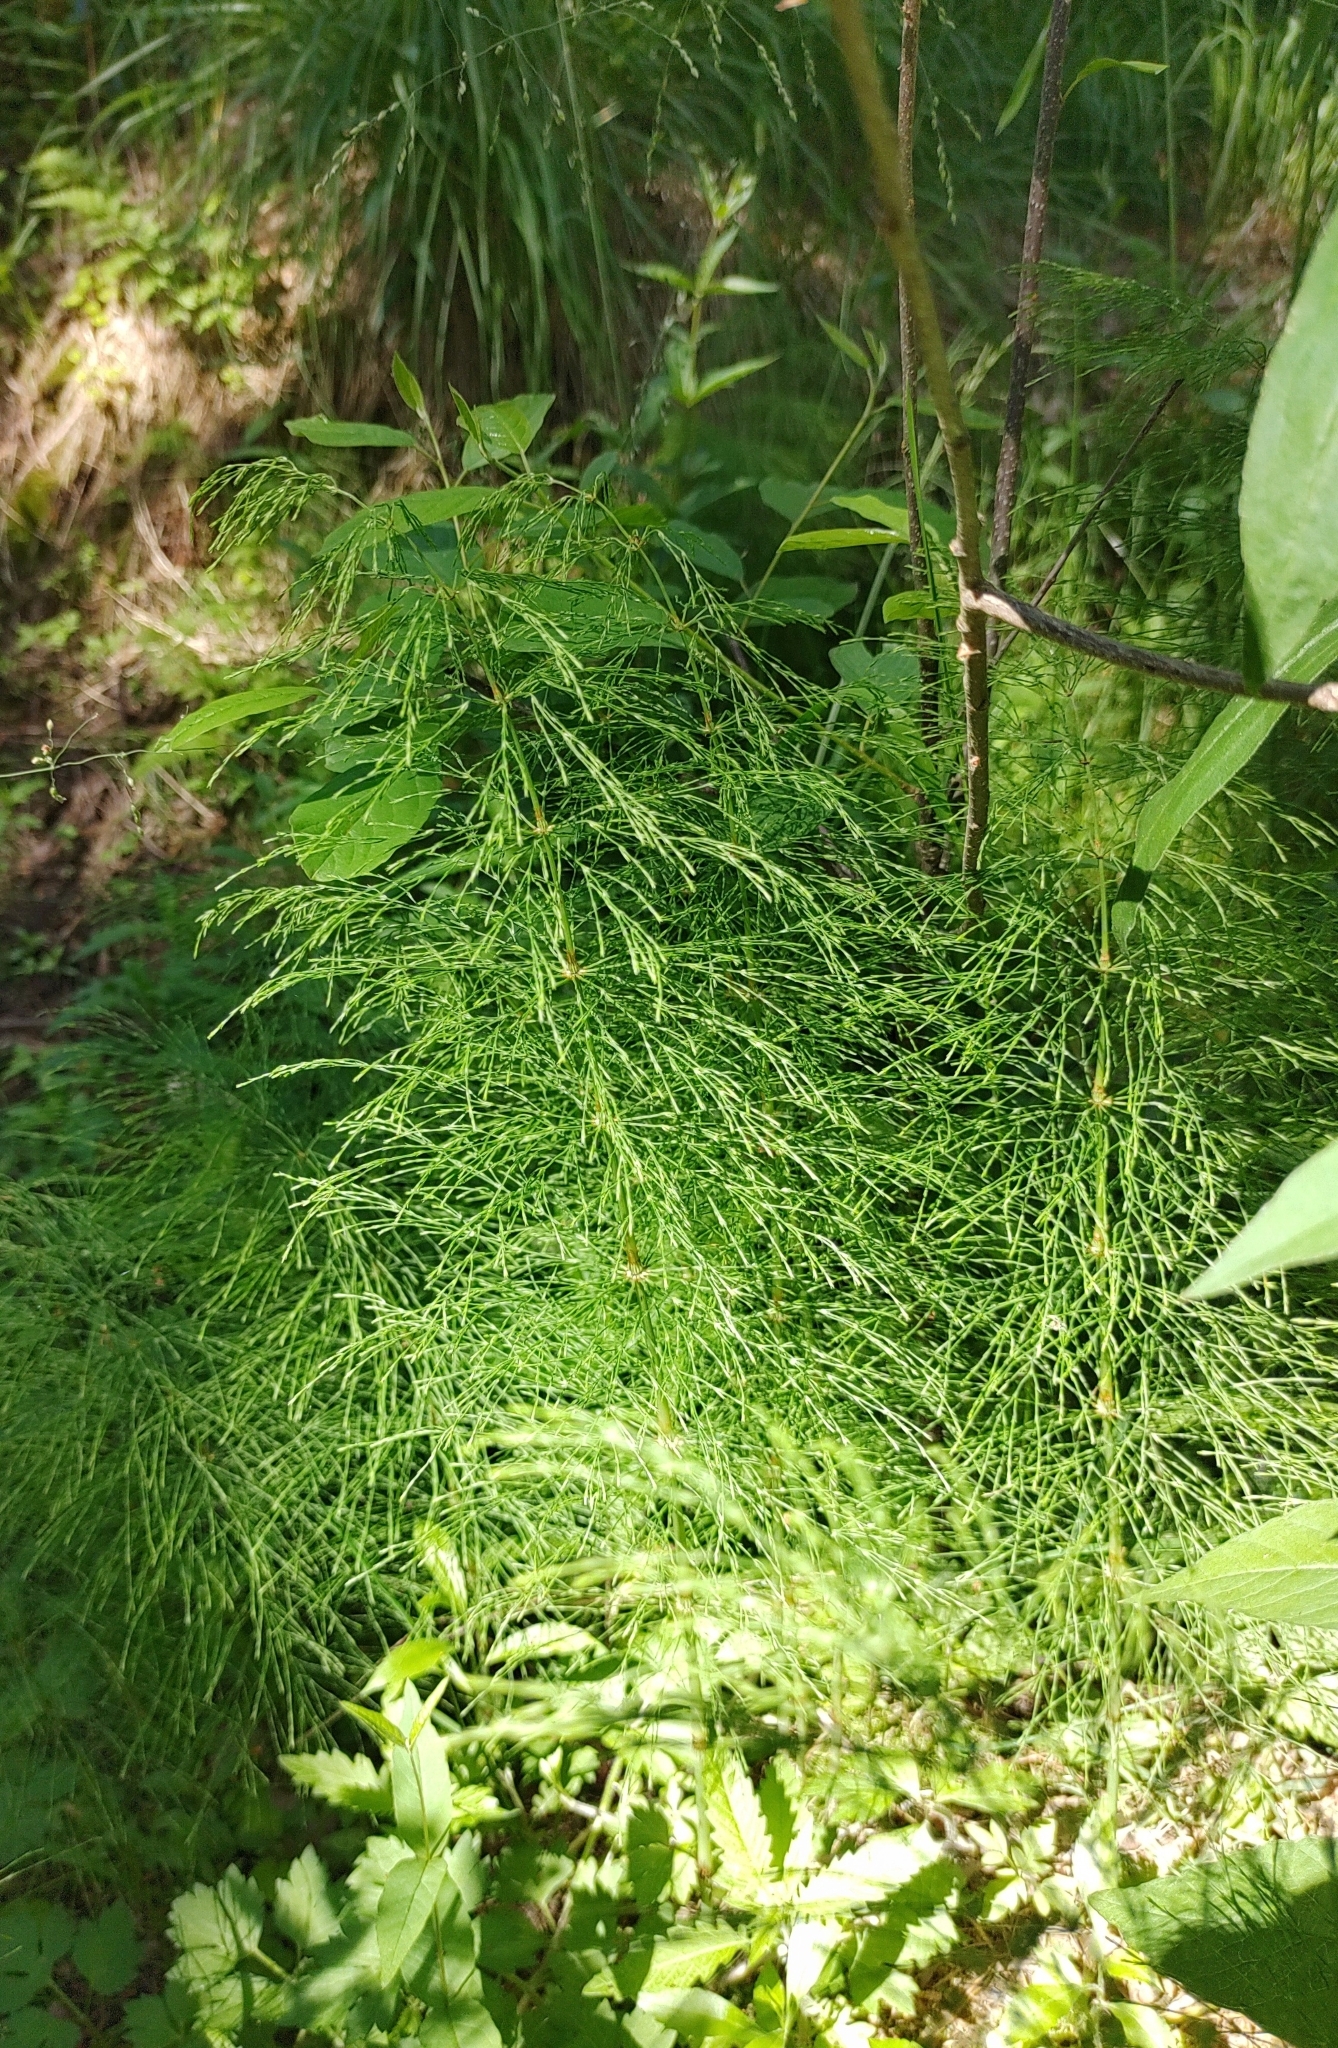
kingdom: Plantae
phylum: Tracheophyta
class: Polypodiopsida
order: Equisetales
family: Equisetaceae
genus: Equisetum
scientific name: Equisetum sylvaticum
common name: Wood horsetail
